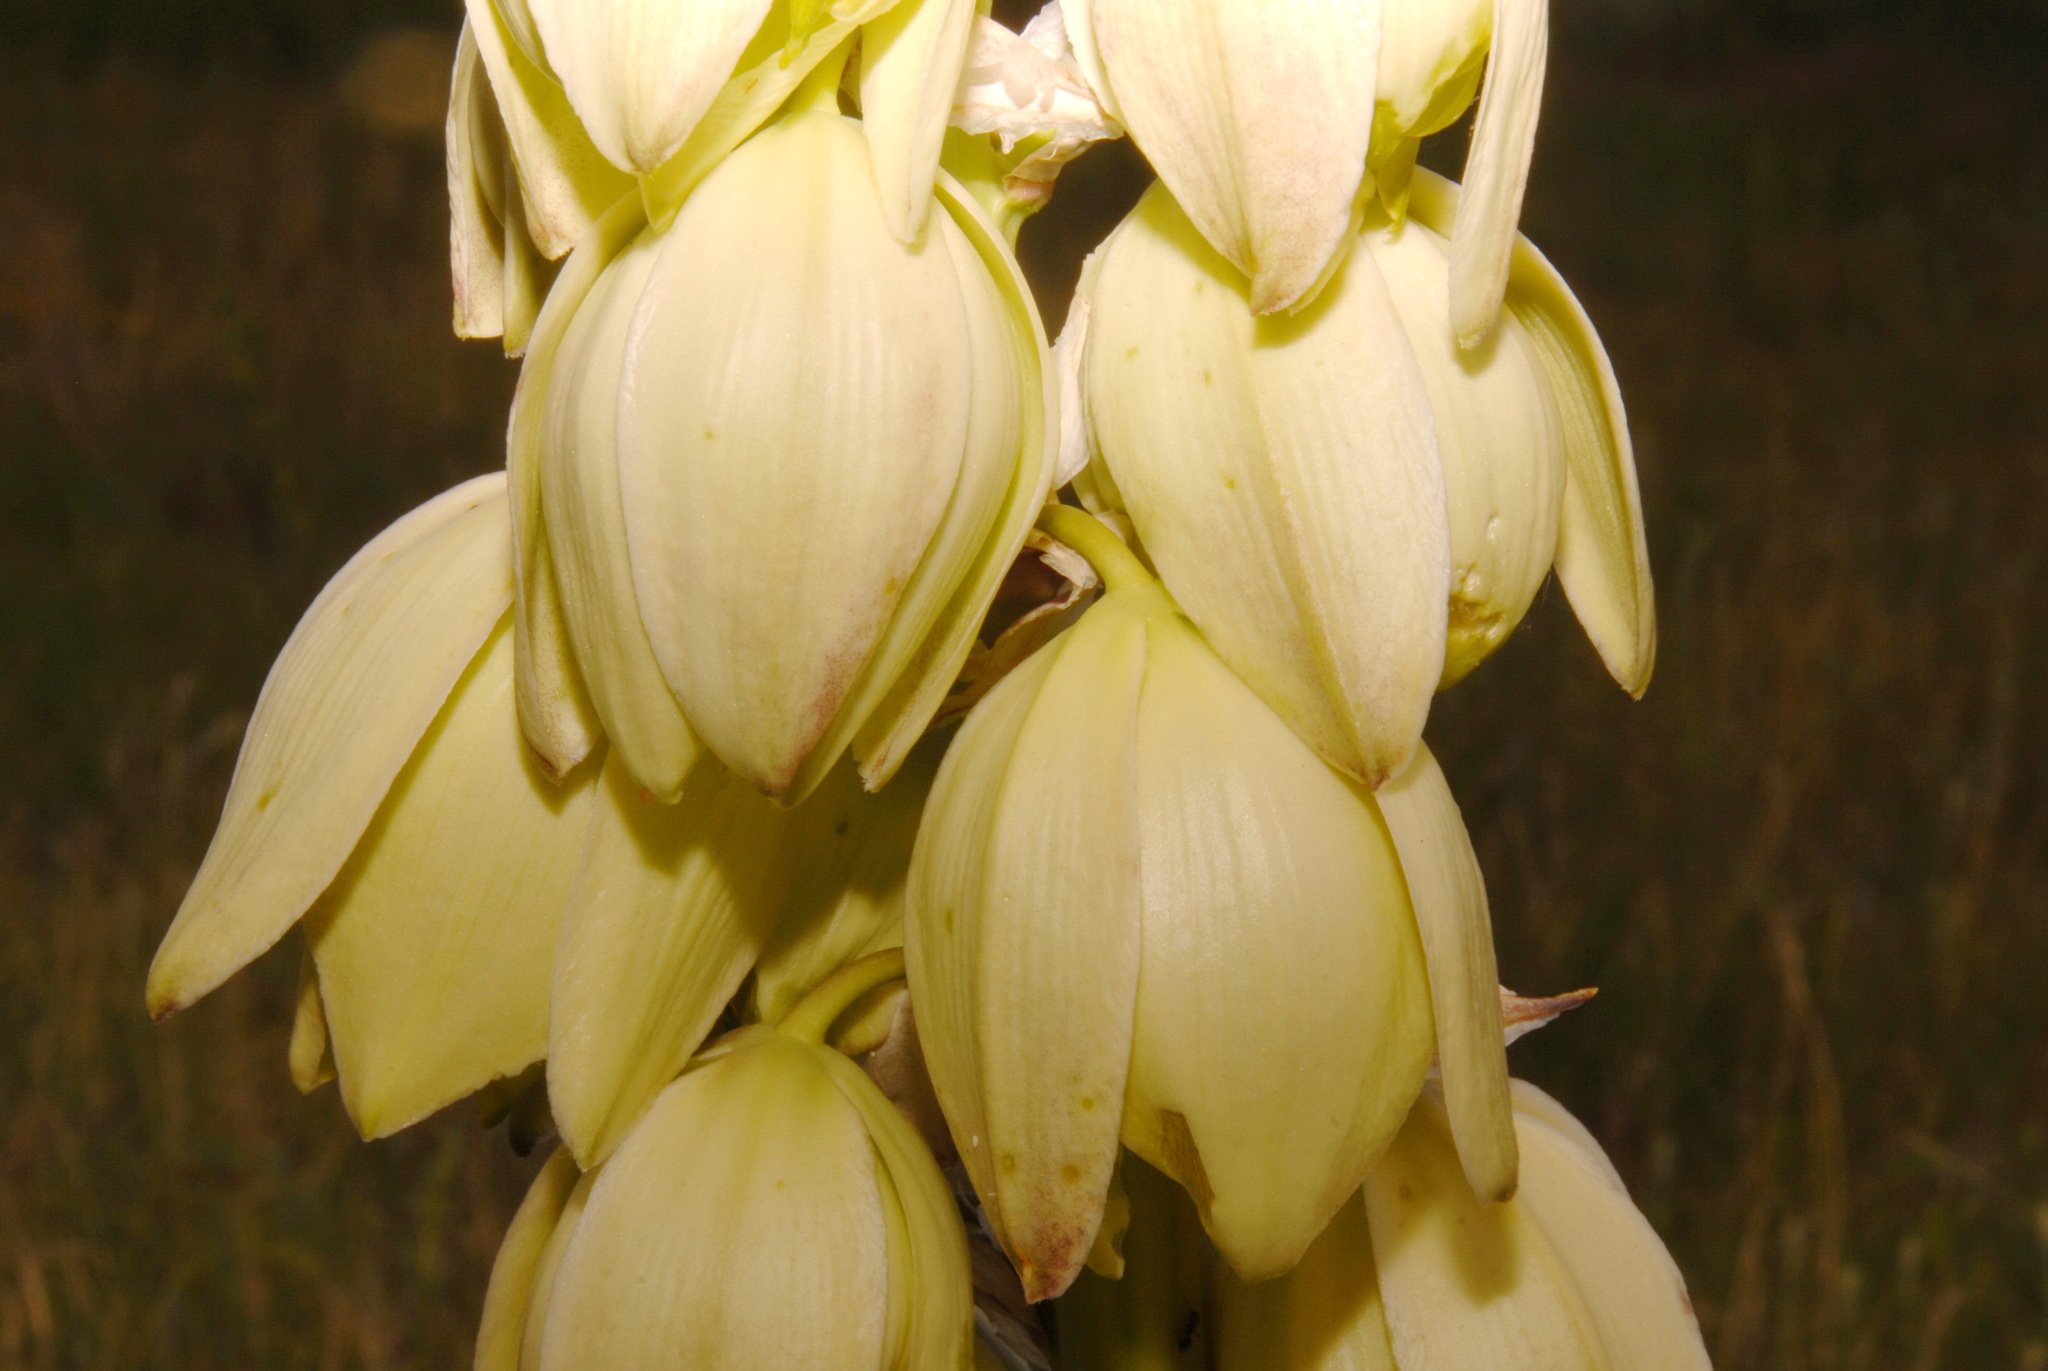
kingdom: Plantae
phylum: Tracheophyta
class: Liliopsida
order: Asparagales
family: Asparagaceae
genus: Yucca
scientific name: Yucca glauca
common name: Great plains yucca
